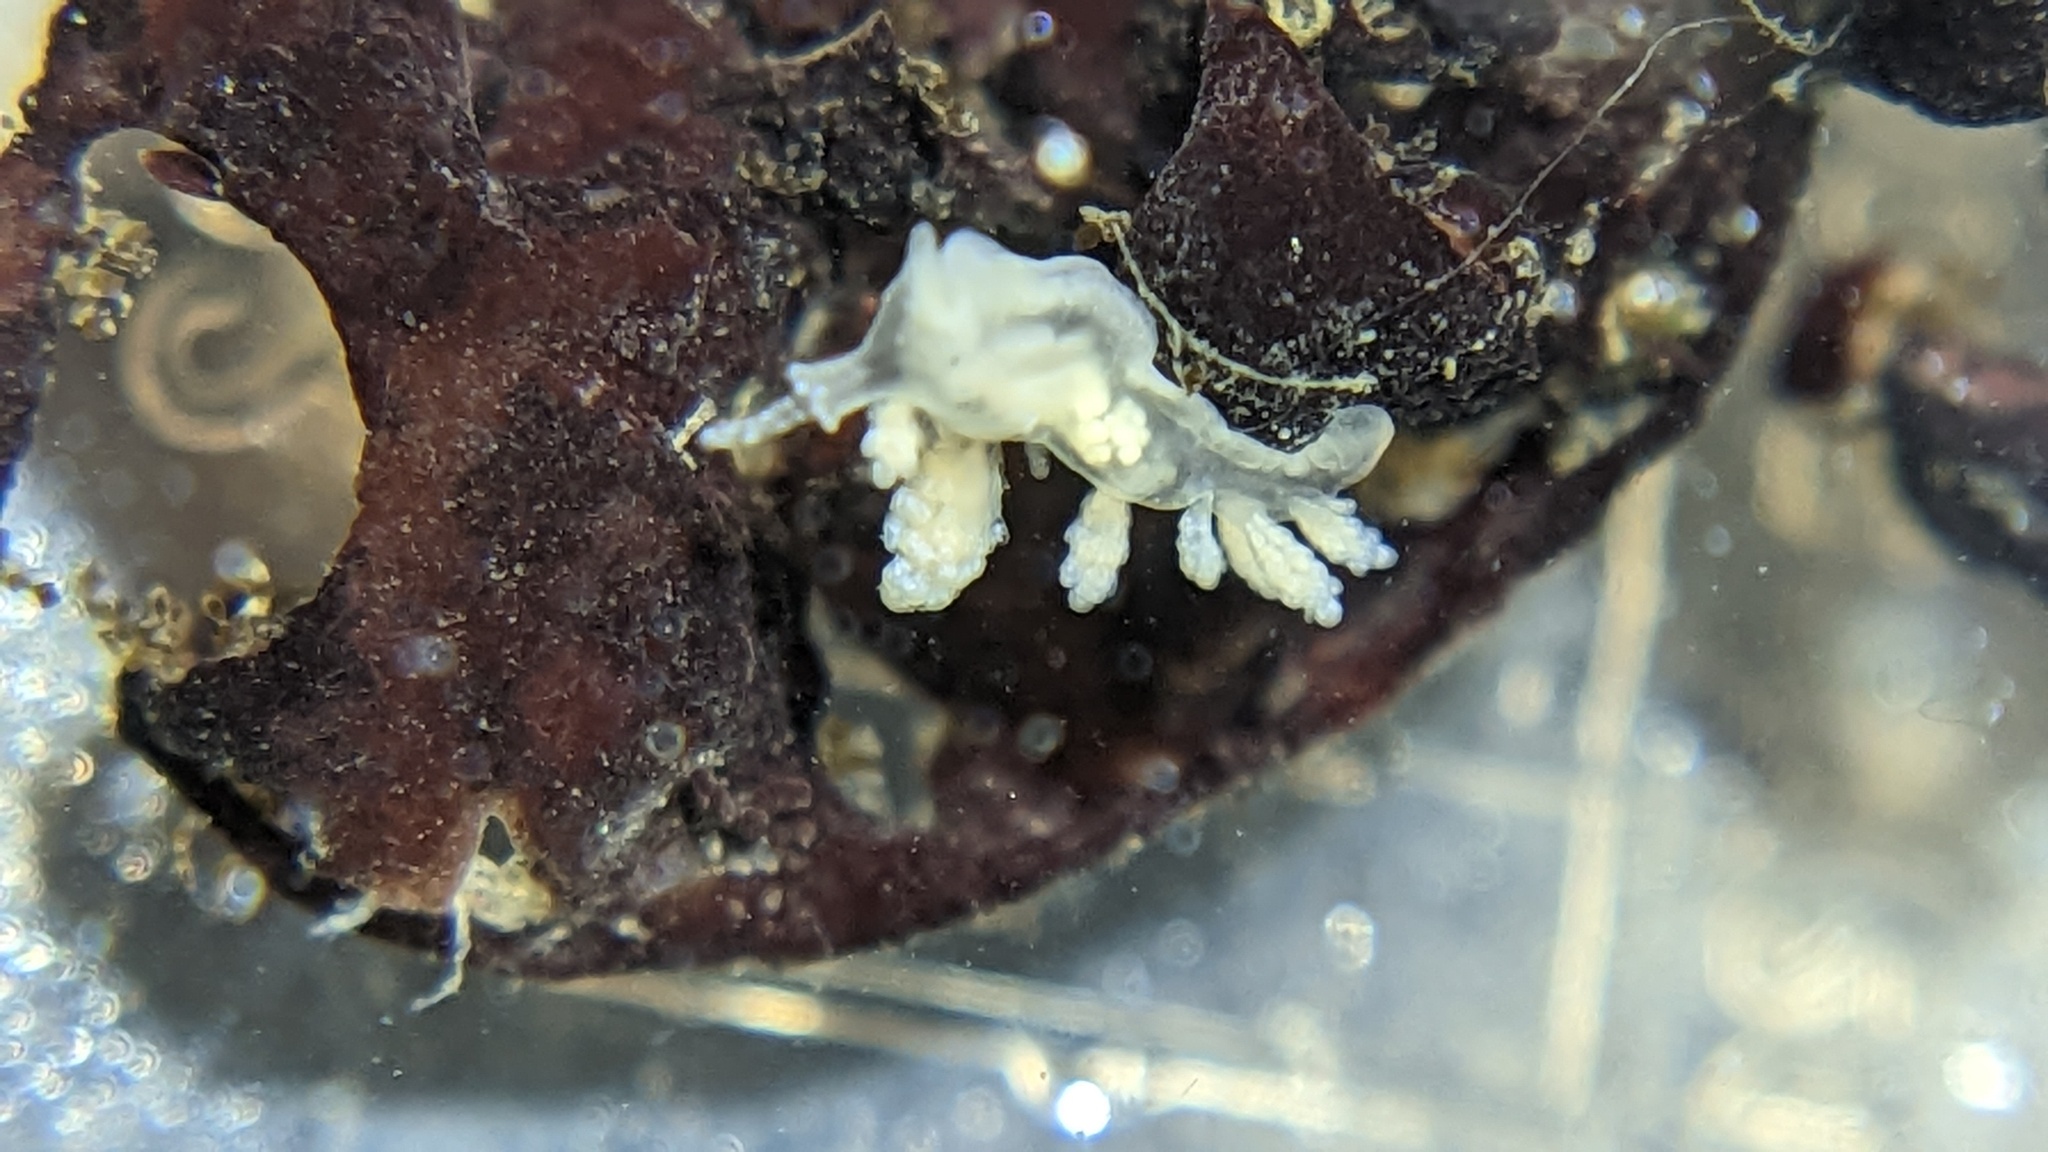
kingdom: Animalia
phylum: Mollusca
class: Gastropoda
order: Nudibranchia
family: Dotidae
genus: Doto
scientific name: Doto amyra
